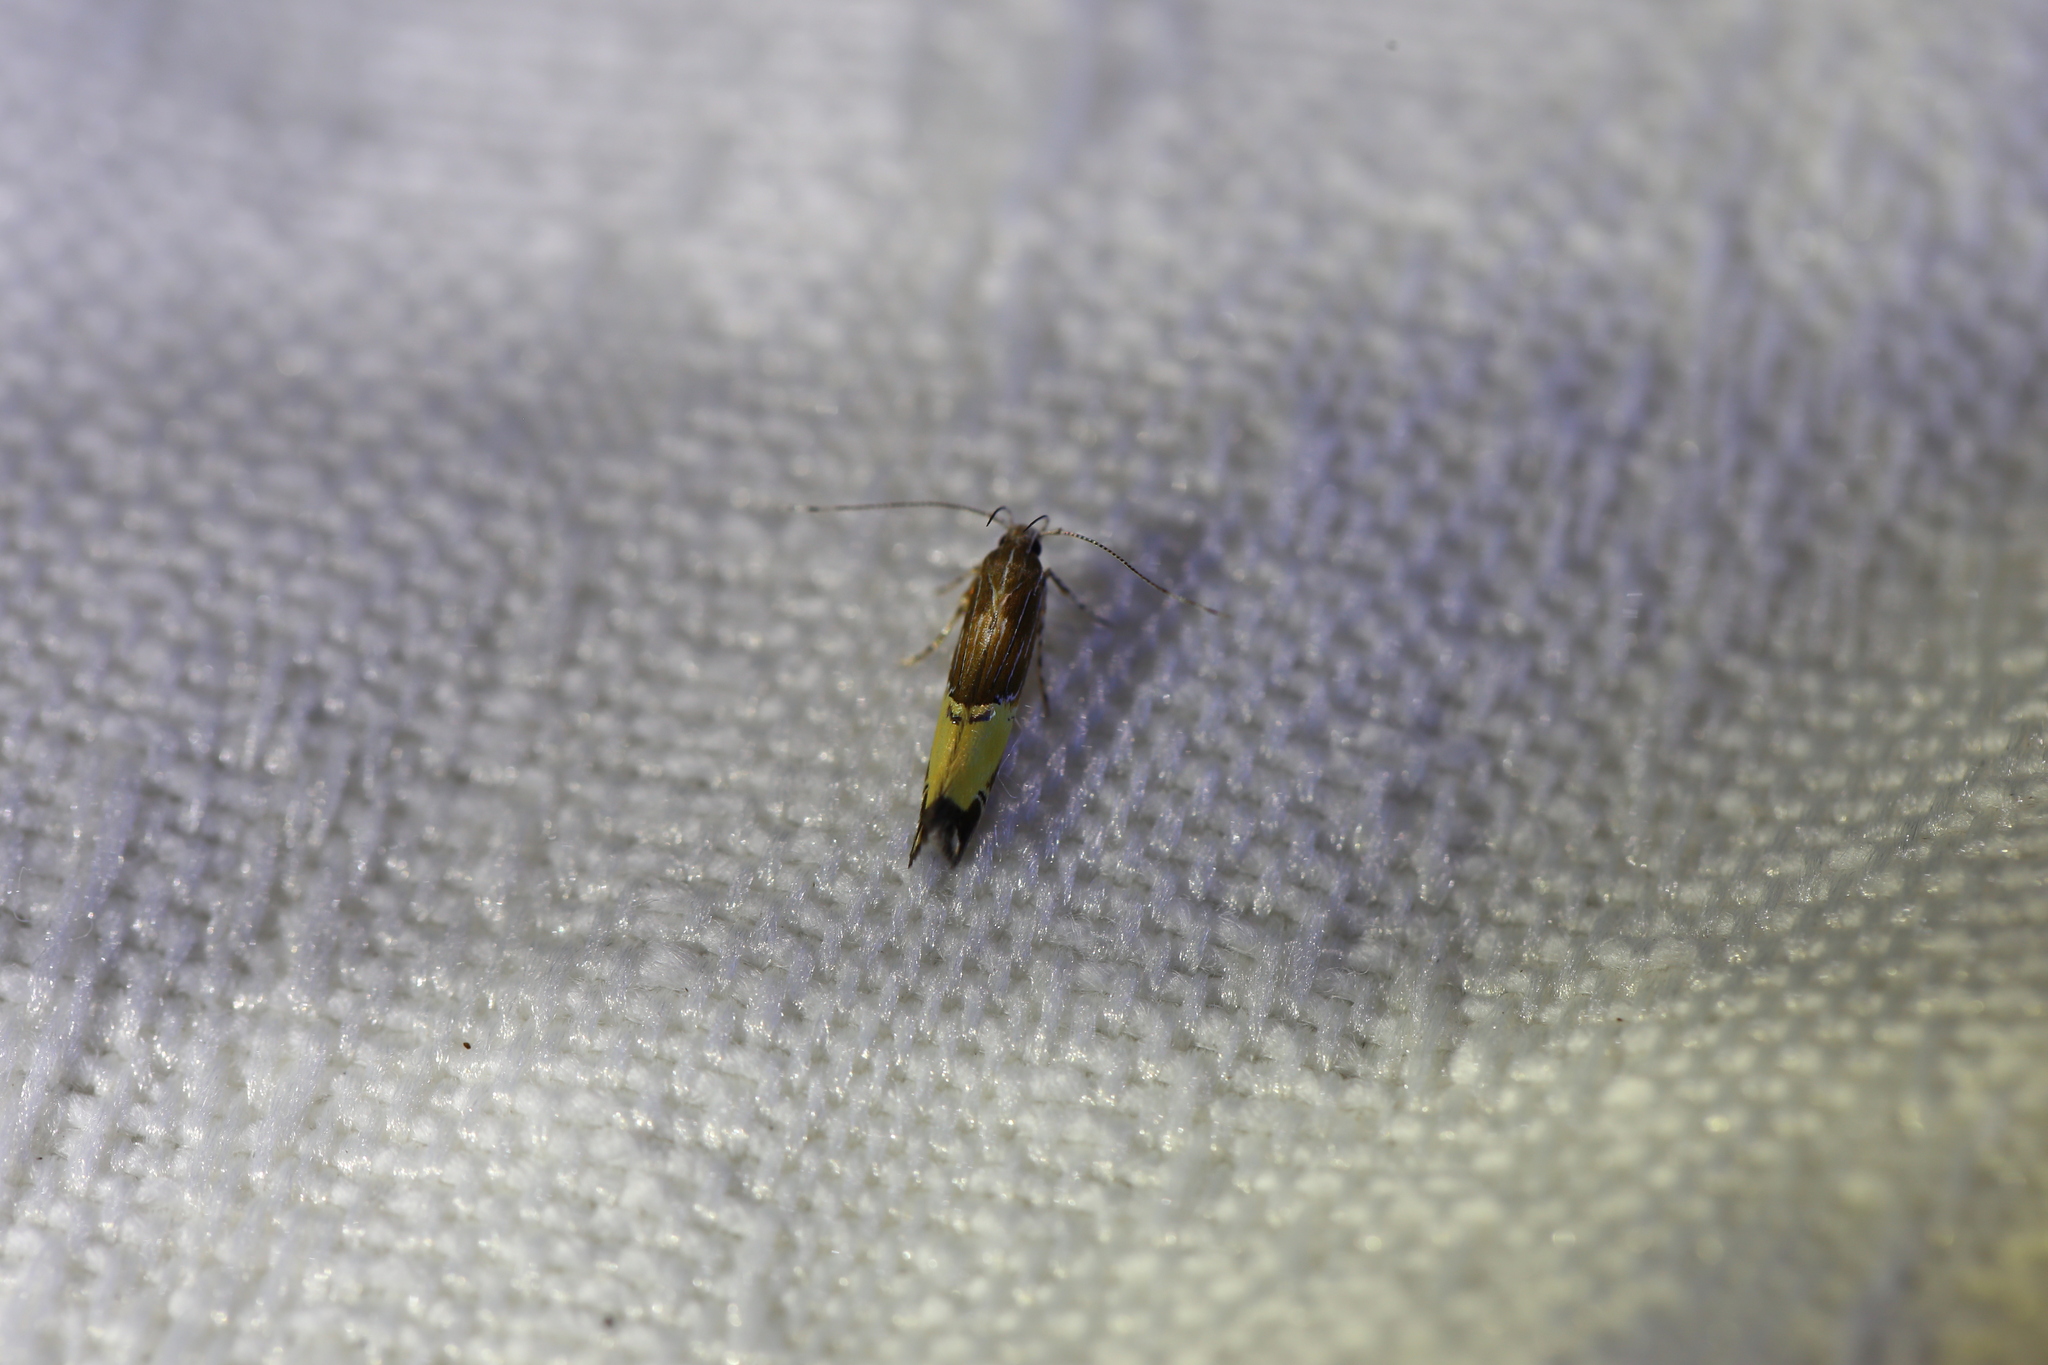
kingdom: Animalia
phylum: Arthropoda
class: Insecta
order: Lepidoptera
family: Cosmopterigidae
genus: Labdia
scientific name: Labdia deliciosella
